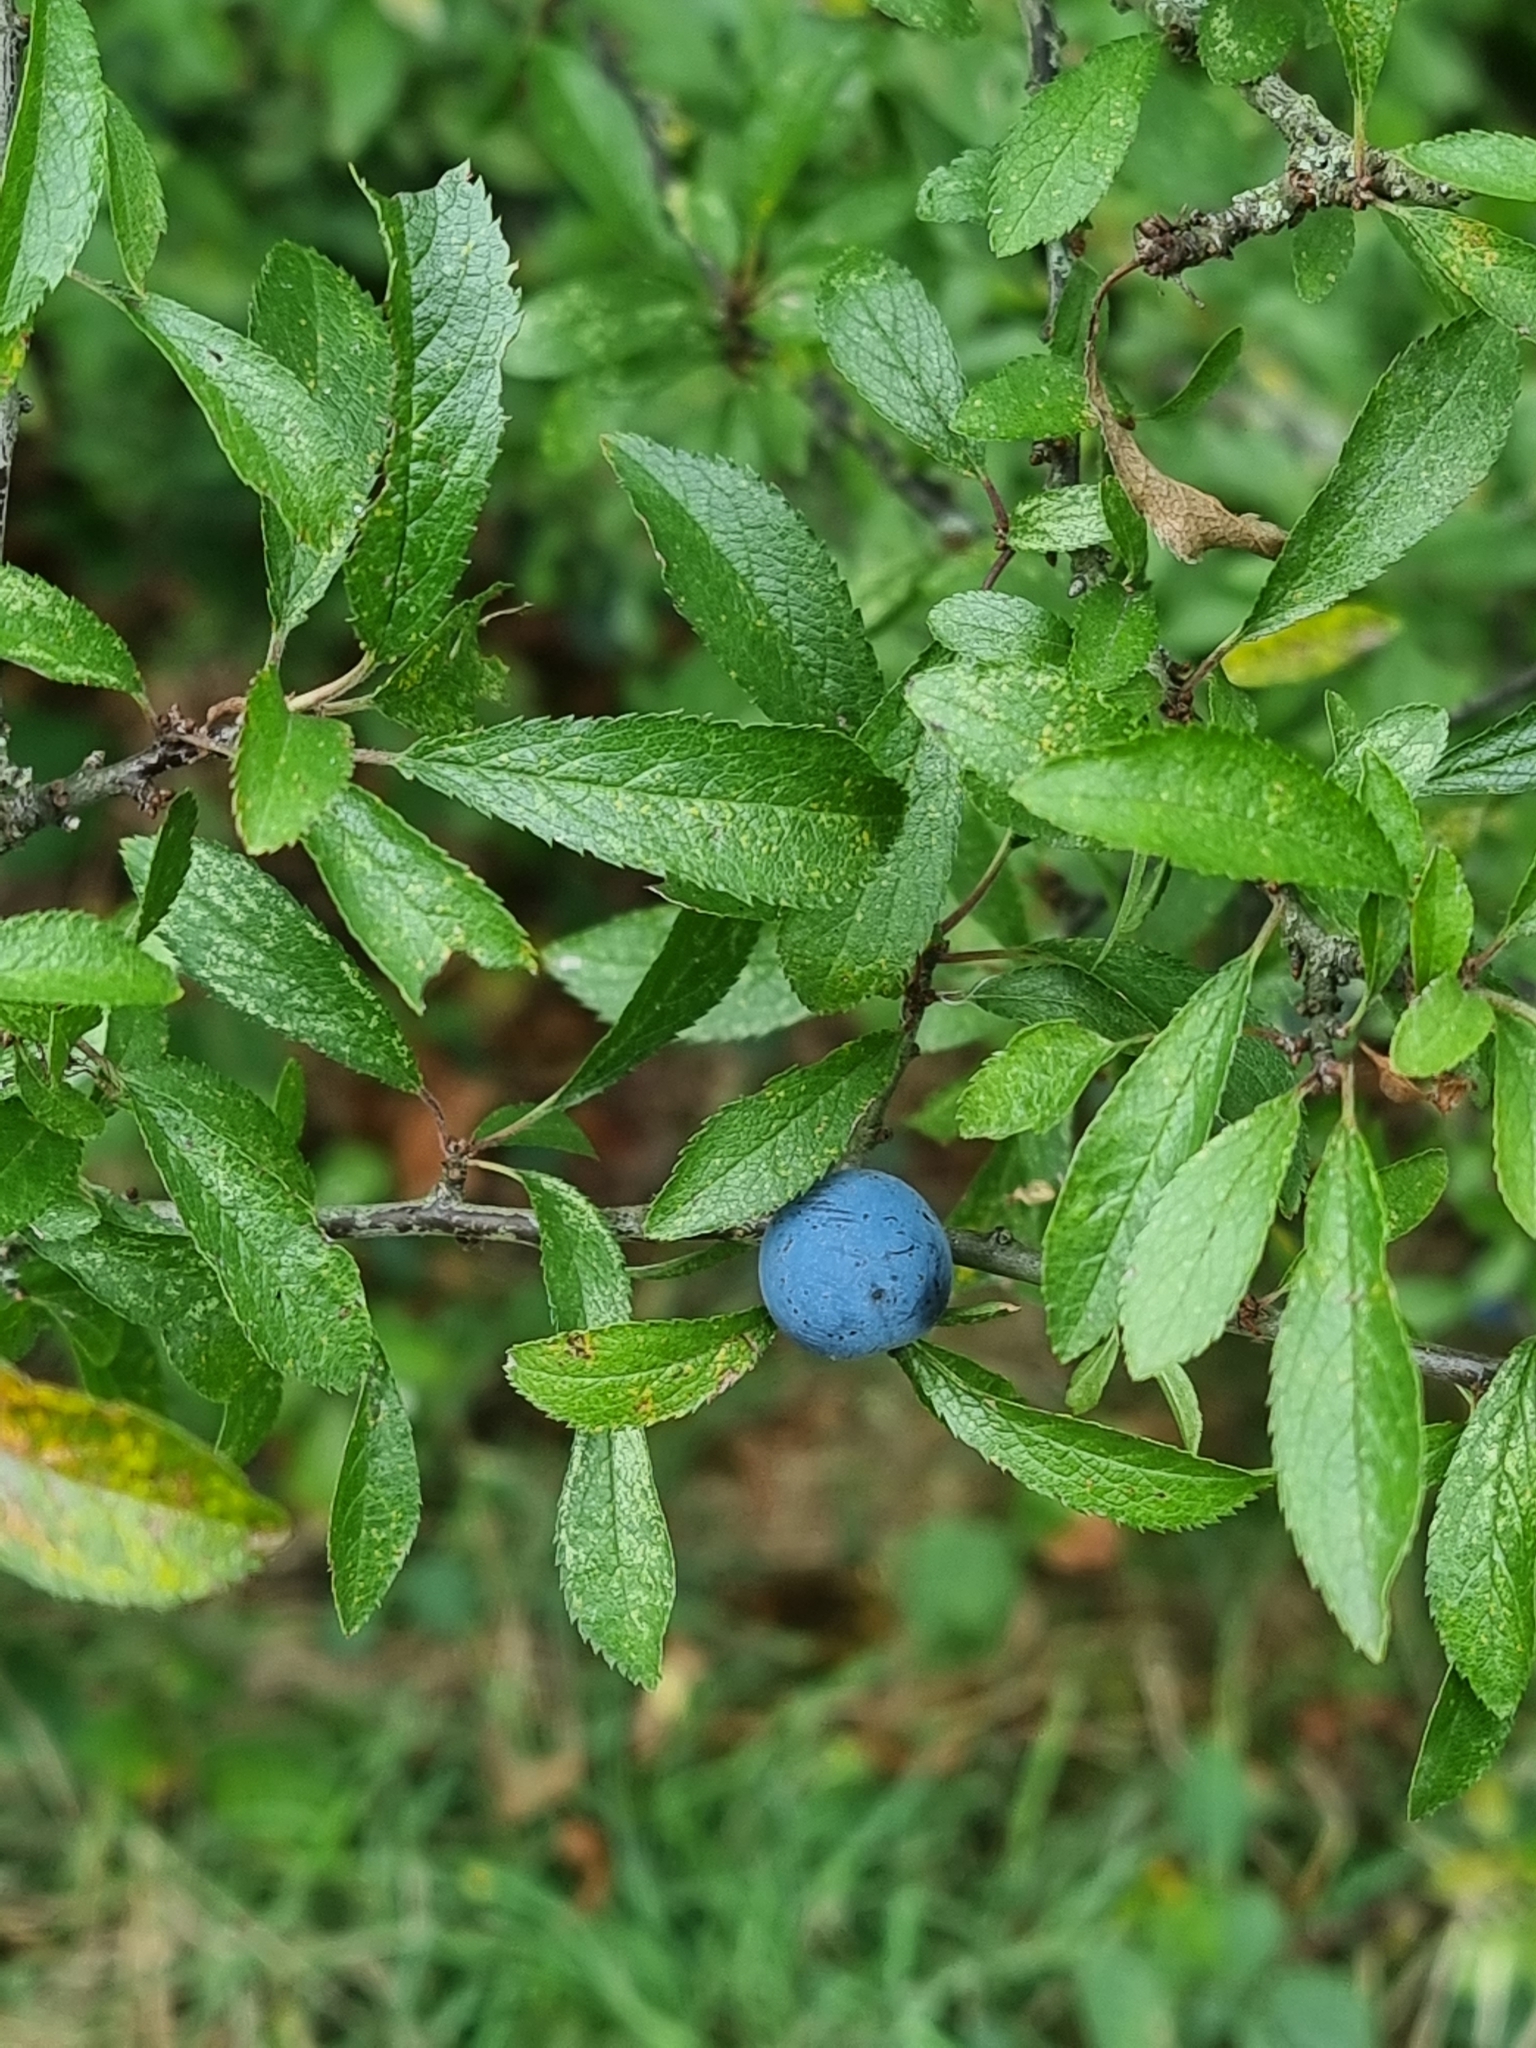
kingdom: Plantae
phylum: Tracheophyta
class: Magnoliopsida
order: Rosales
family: Rosaceae
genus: Prunus
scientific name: Prunus spinosa
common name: Blackthorn
